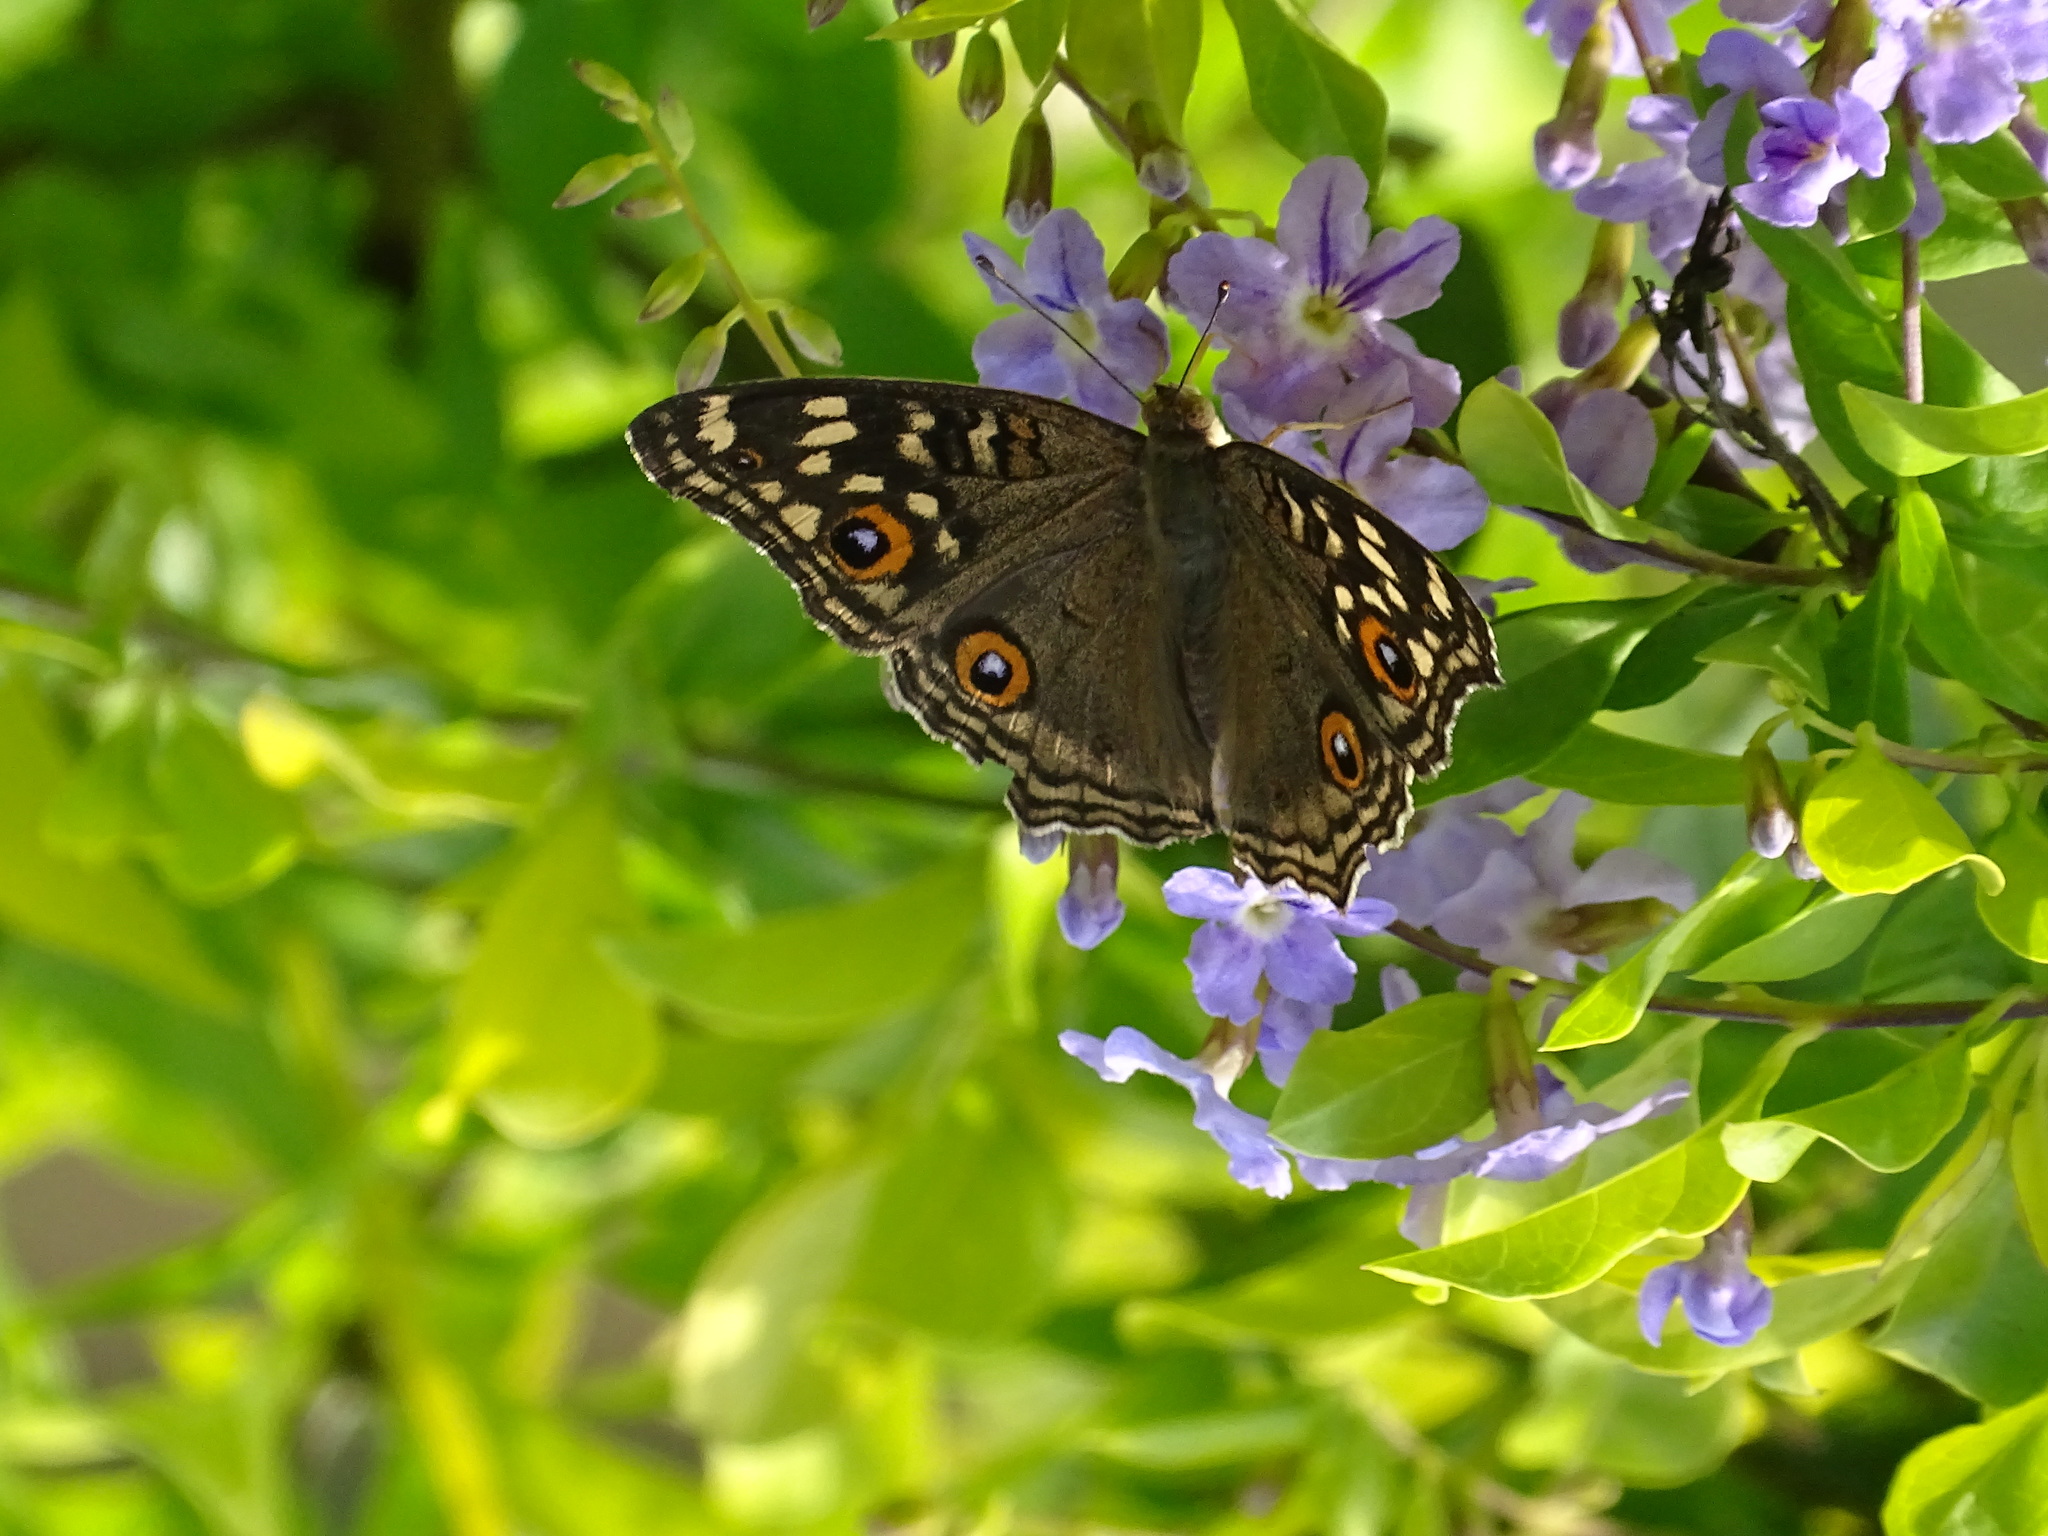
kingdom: Animalia
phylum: Arthropoda
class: Insecta
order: Lepidoptera
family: Nymphalidae
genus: Junonia
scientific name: Junonia lemonias
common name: Lemon pansy
